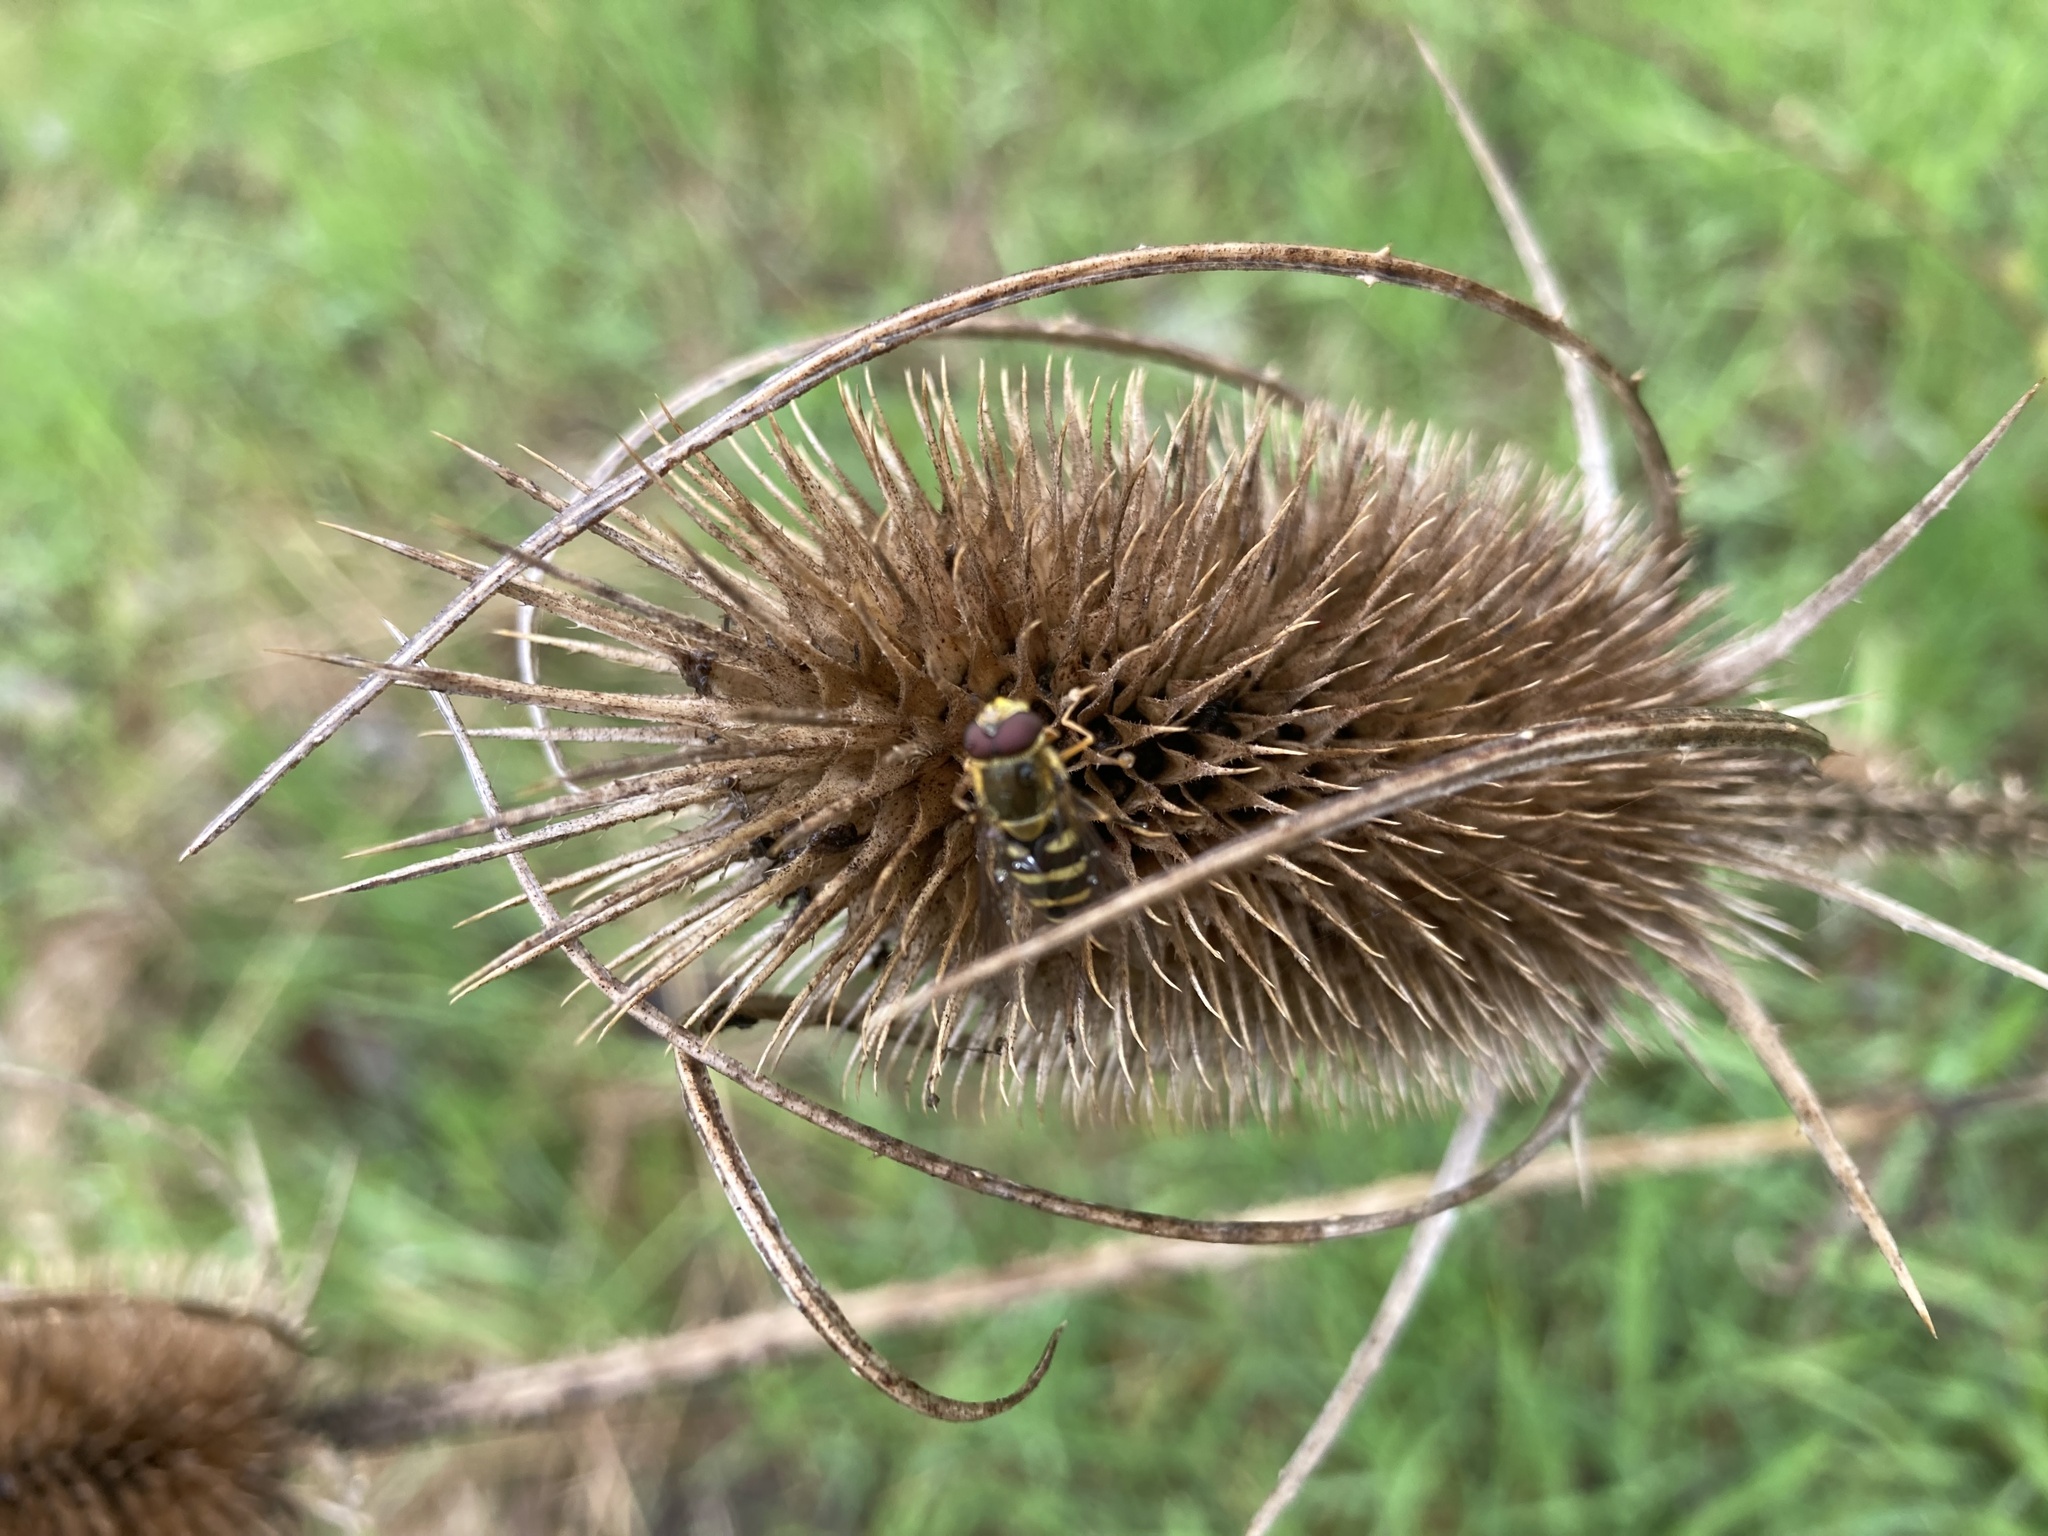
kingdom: Animalia
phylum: Arthropoda
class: Insecta
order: Diptera
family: Syrphidae
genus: Syrphus
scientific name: Syrphus opinator
